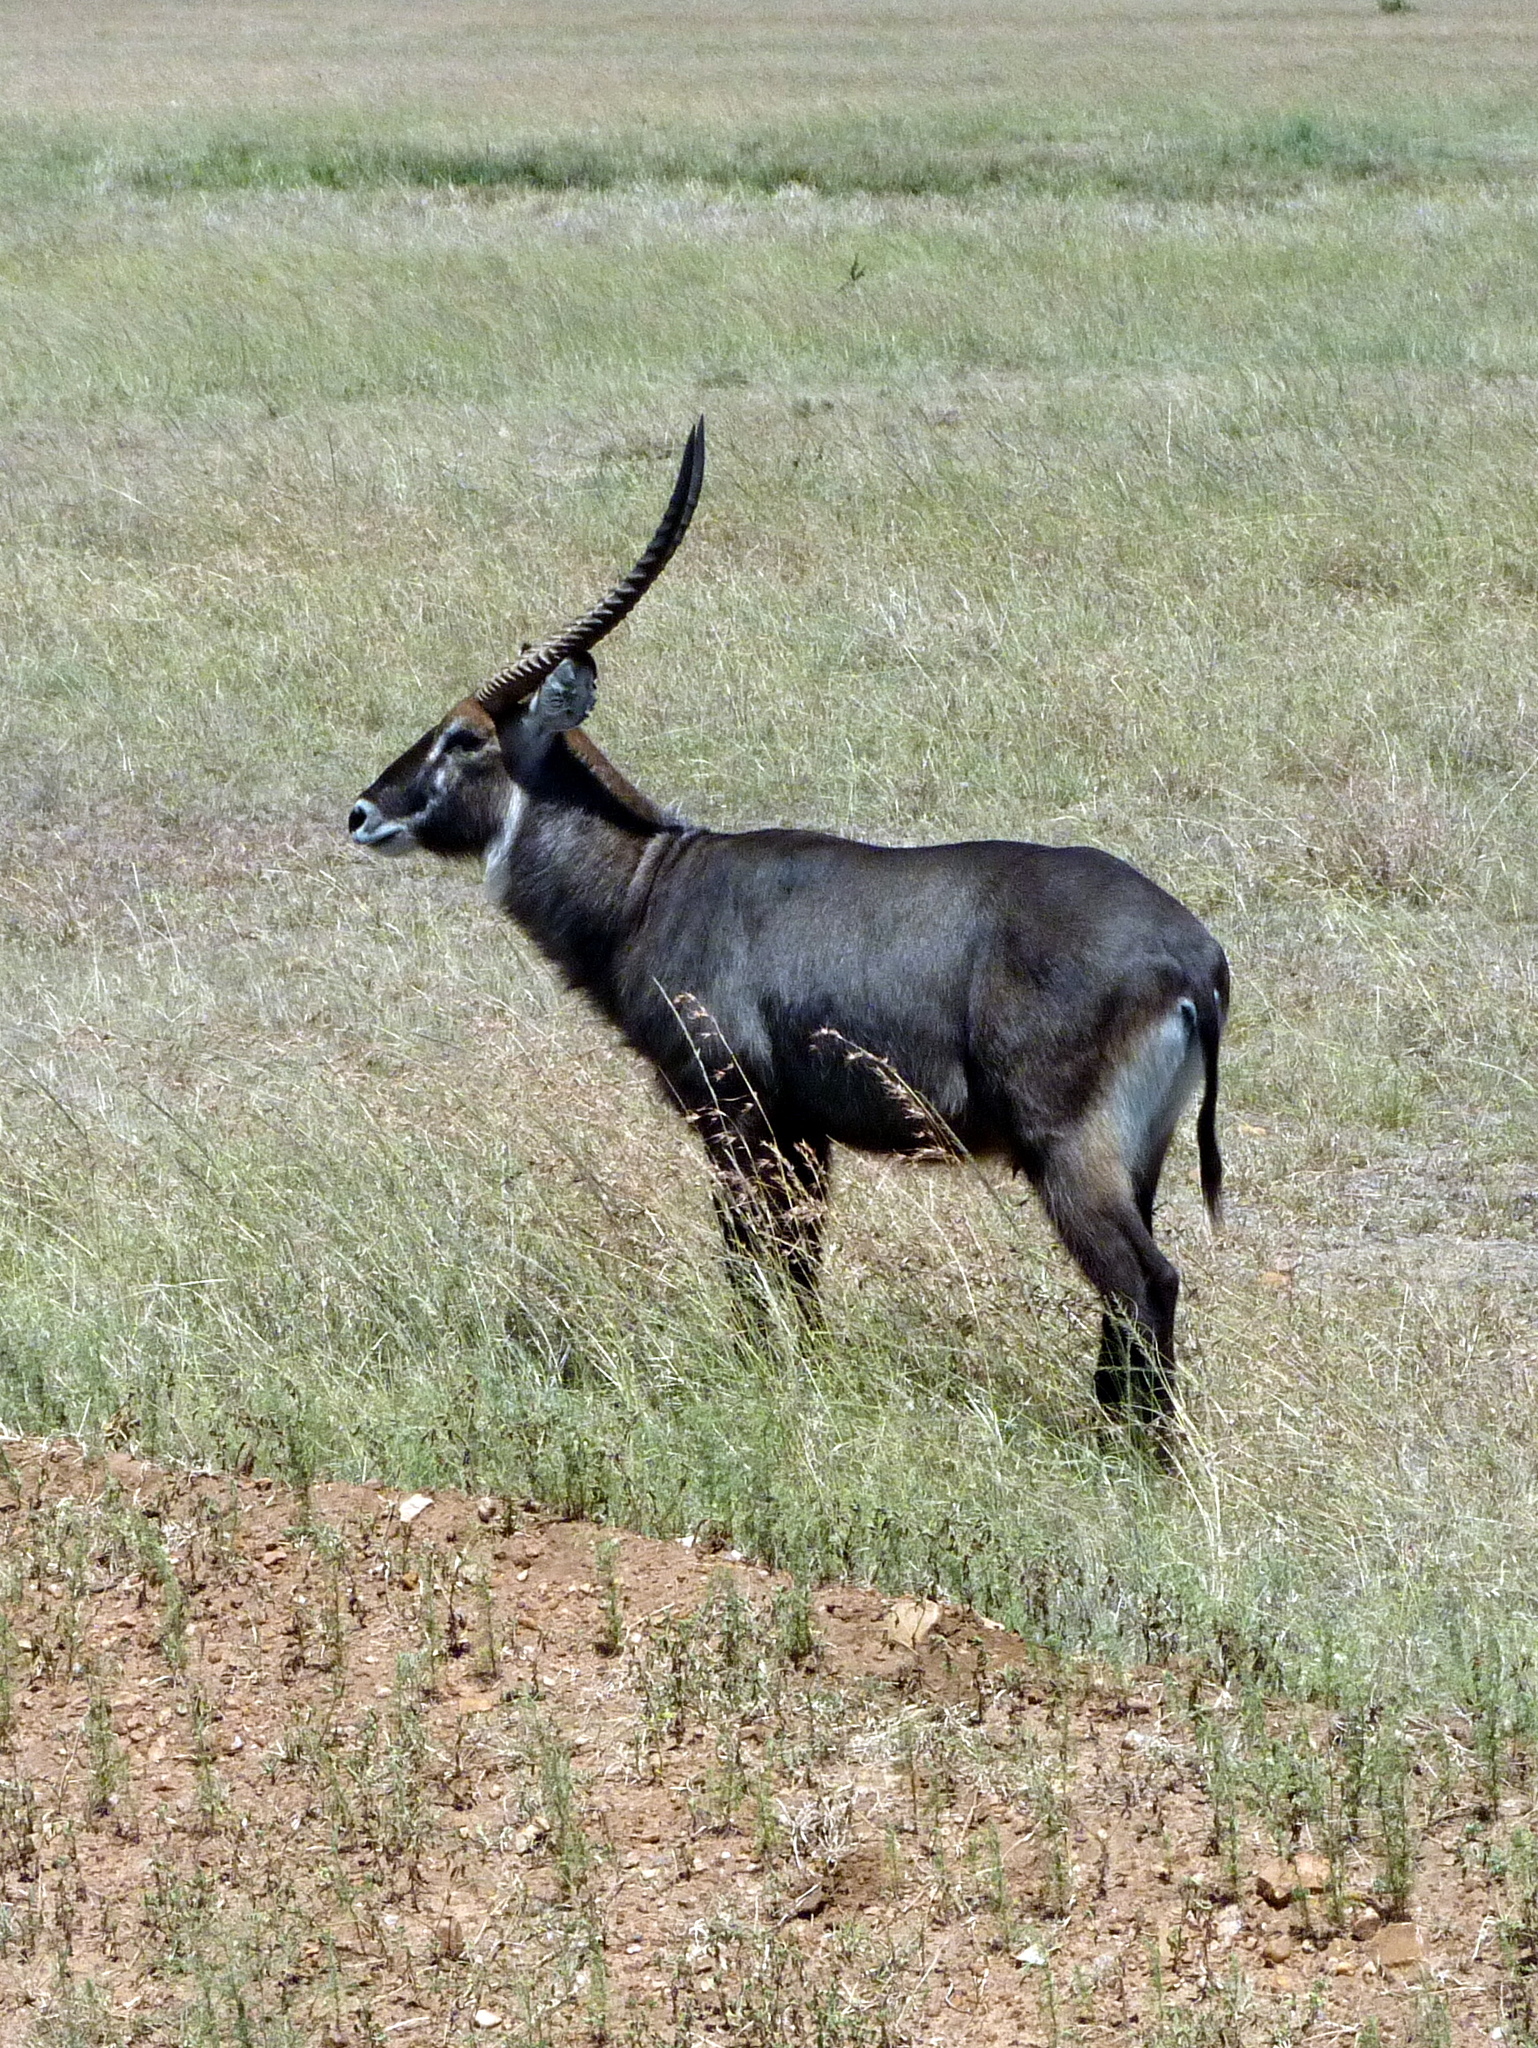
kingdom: Animalia
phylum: Chordata
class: Mammalia
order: Artiodactyla
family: Bovidae
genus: Kobus
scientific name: Kobus ellipsiprymnus
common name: Waterbuck
